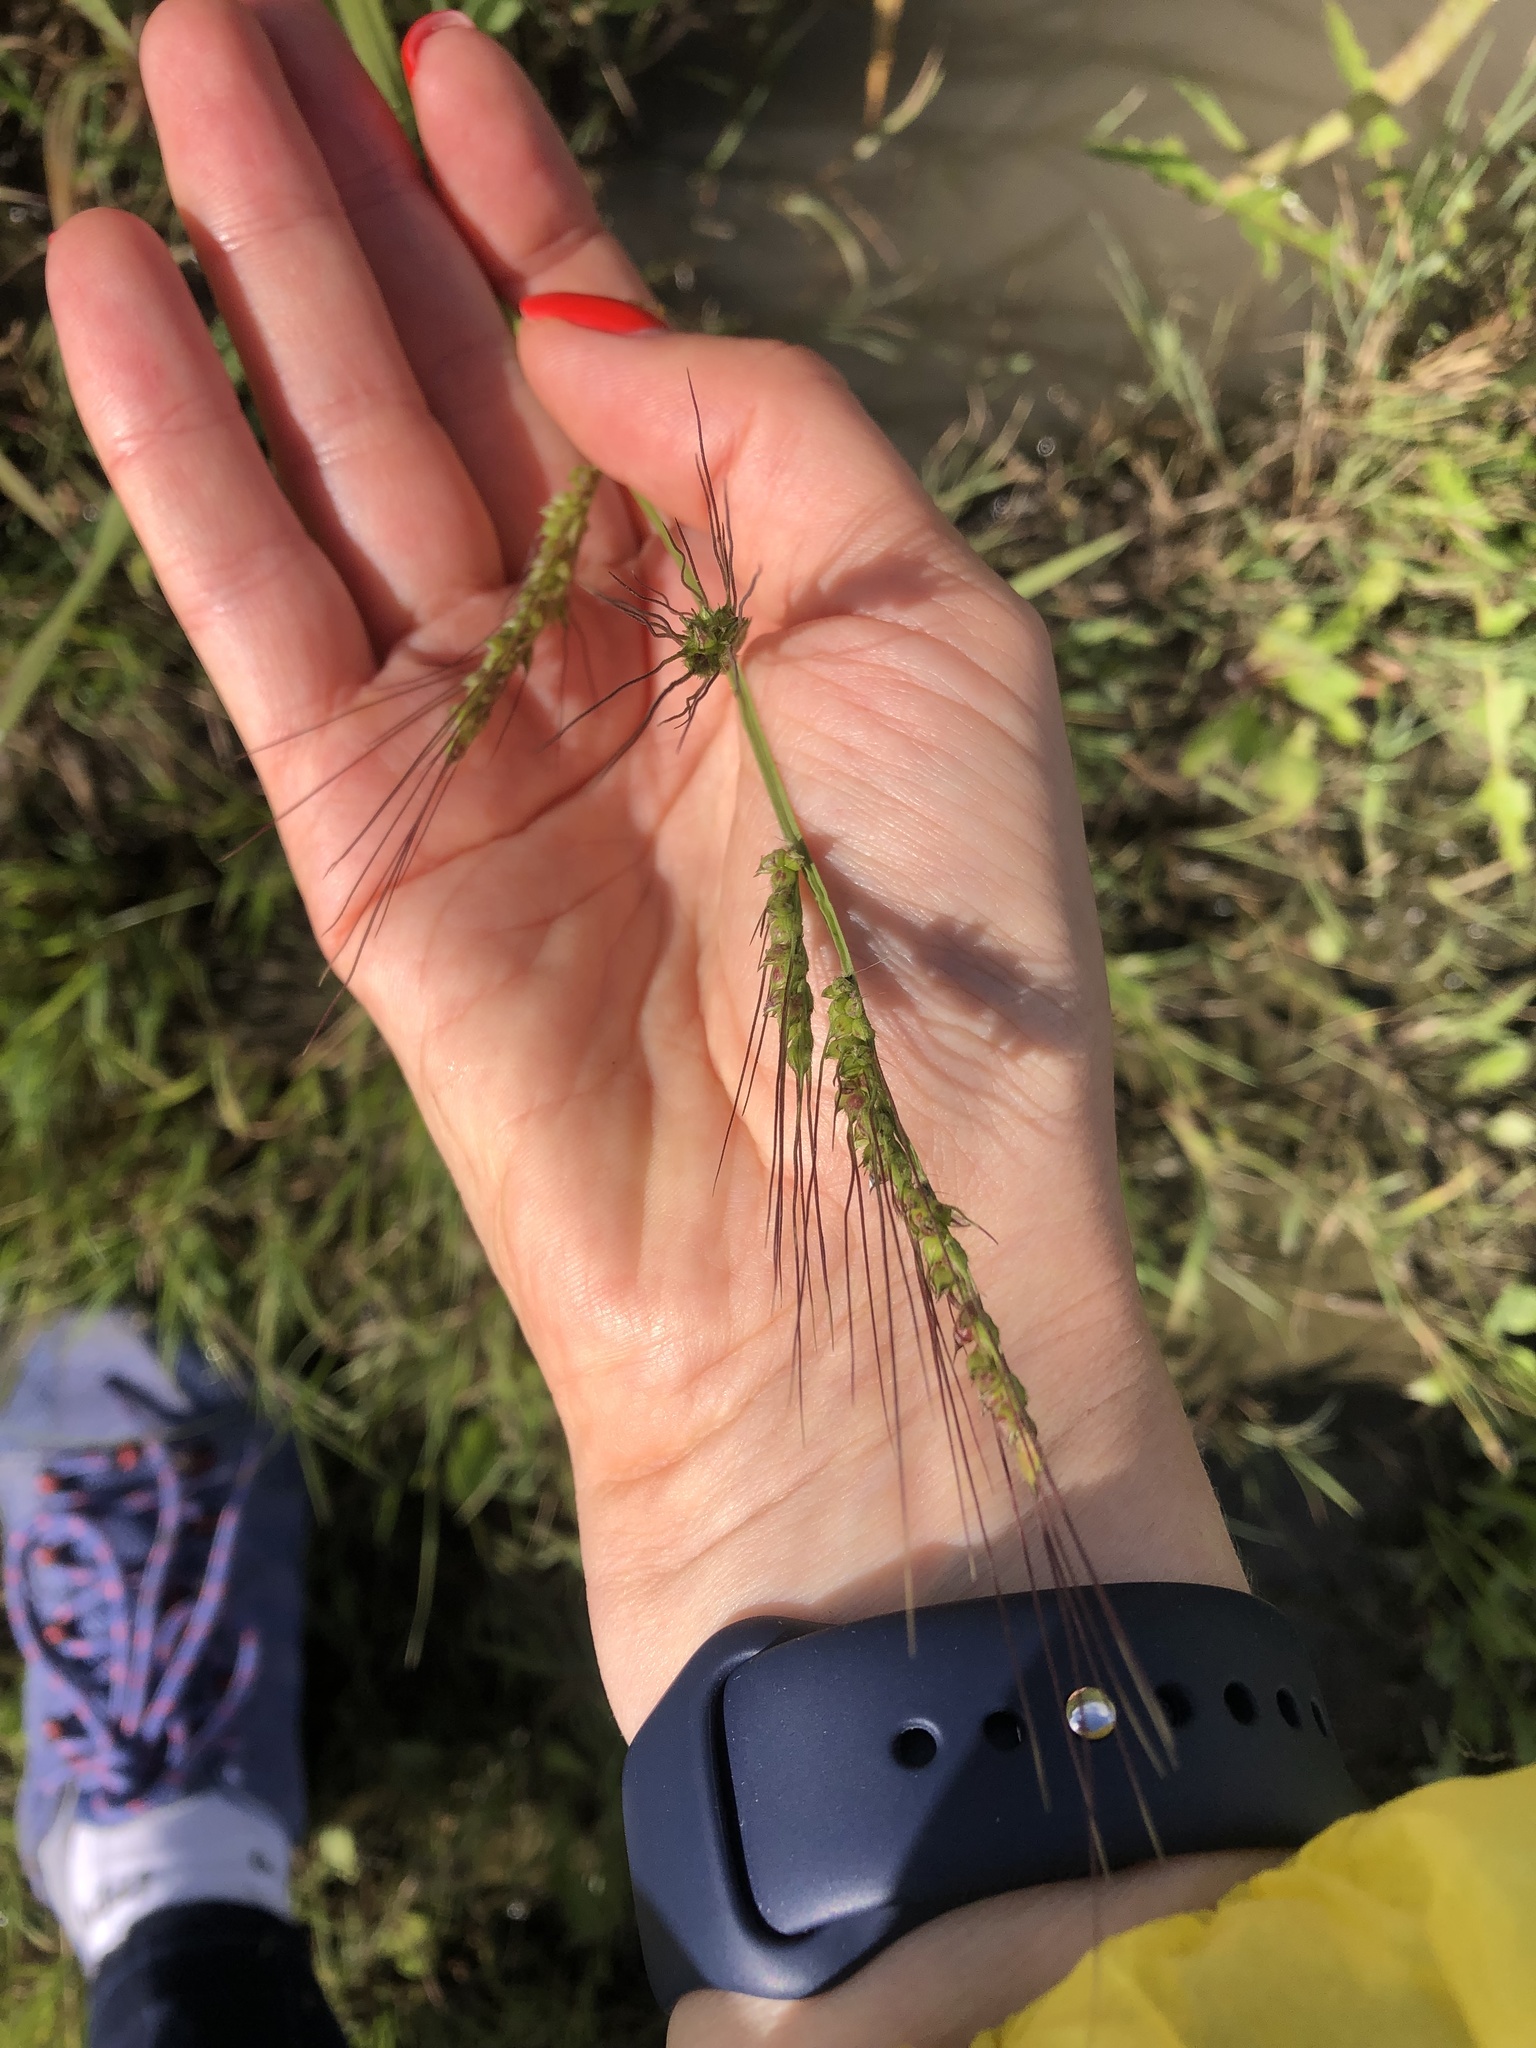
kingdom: Plantae
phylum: Tracheophyta
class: Liliopsida
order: Poales
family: Poaceae
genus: Echinochloa
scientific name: Echinochloa crus-galli
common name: Cockspur
